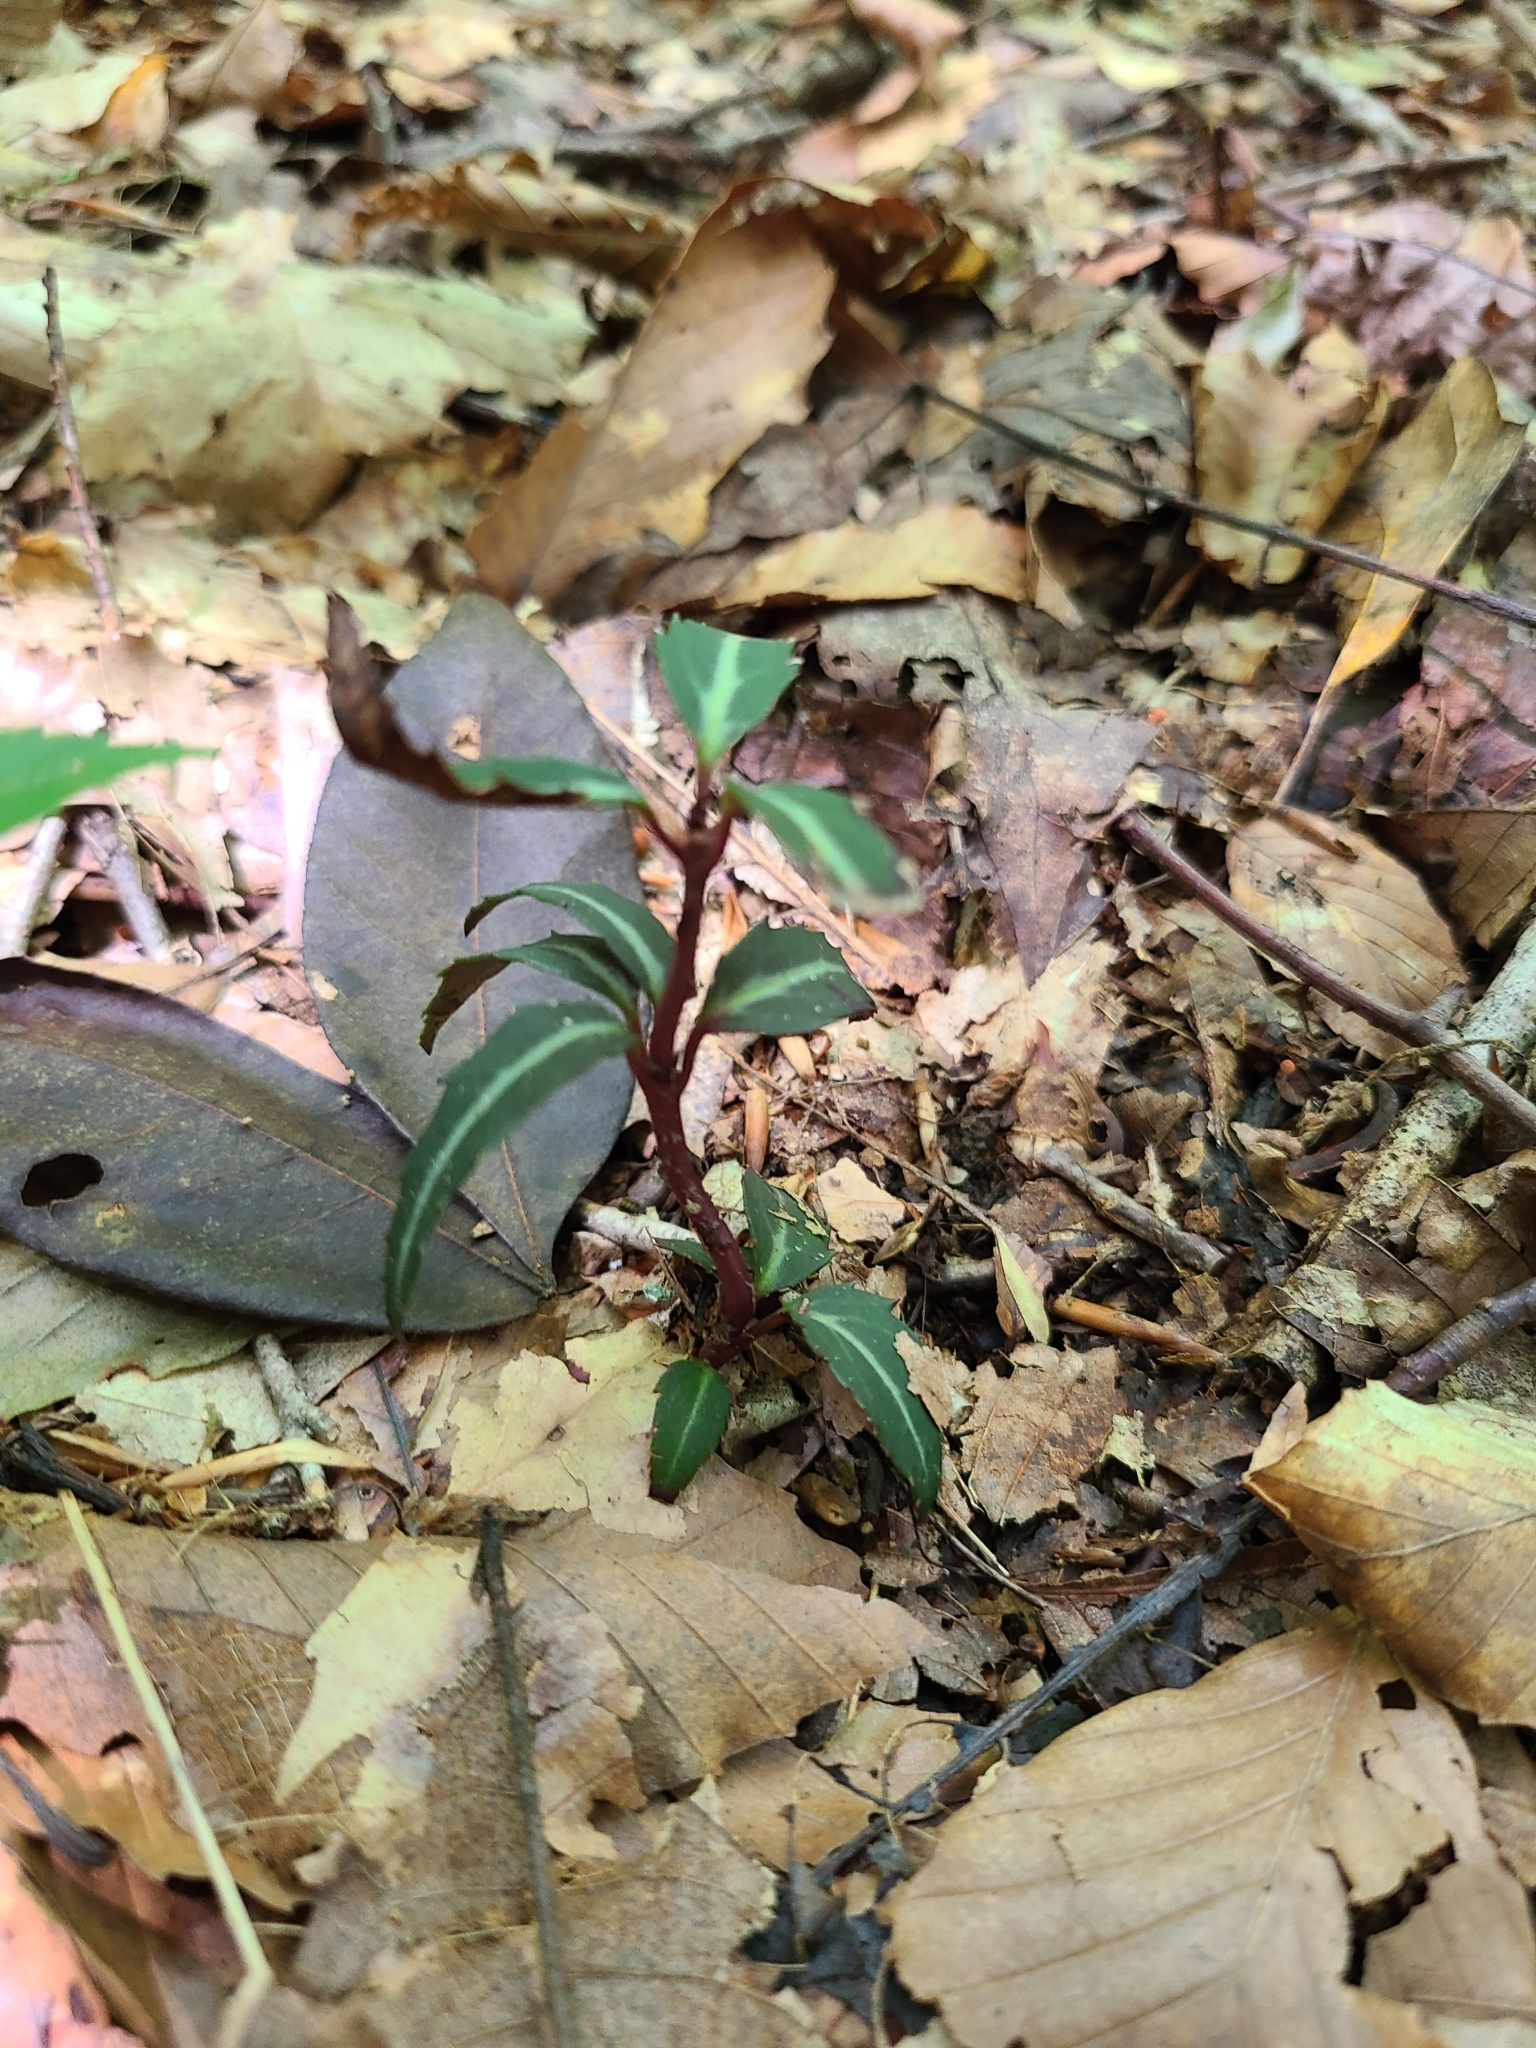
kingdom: Plantae
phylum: Tracheophyta
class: Magnoliopsida
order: Ericales
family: Ericaceae
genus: Chimaphila
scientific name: Chimaphila maculata
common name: Spotted pipsissewa
